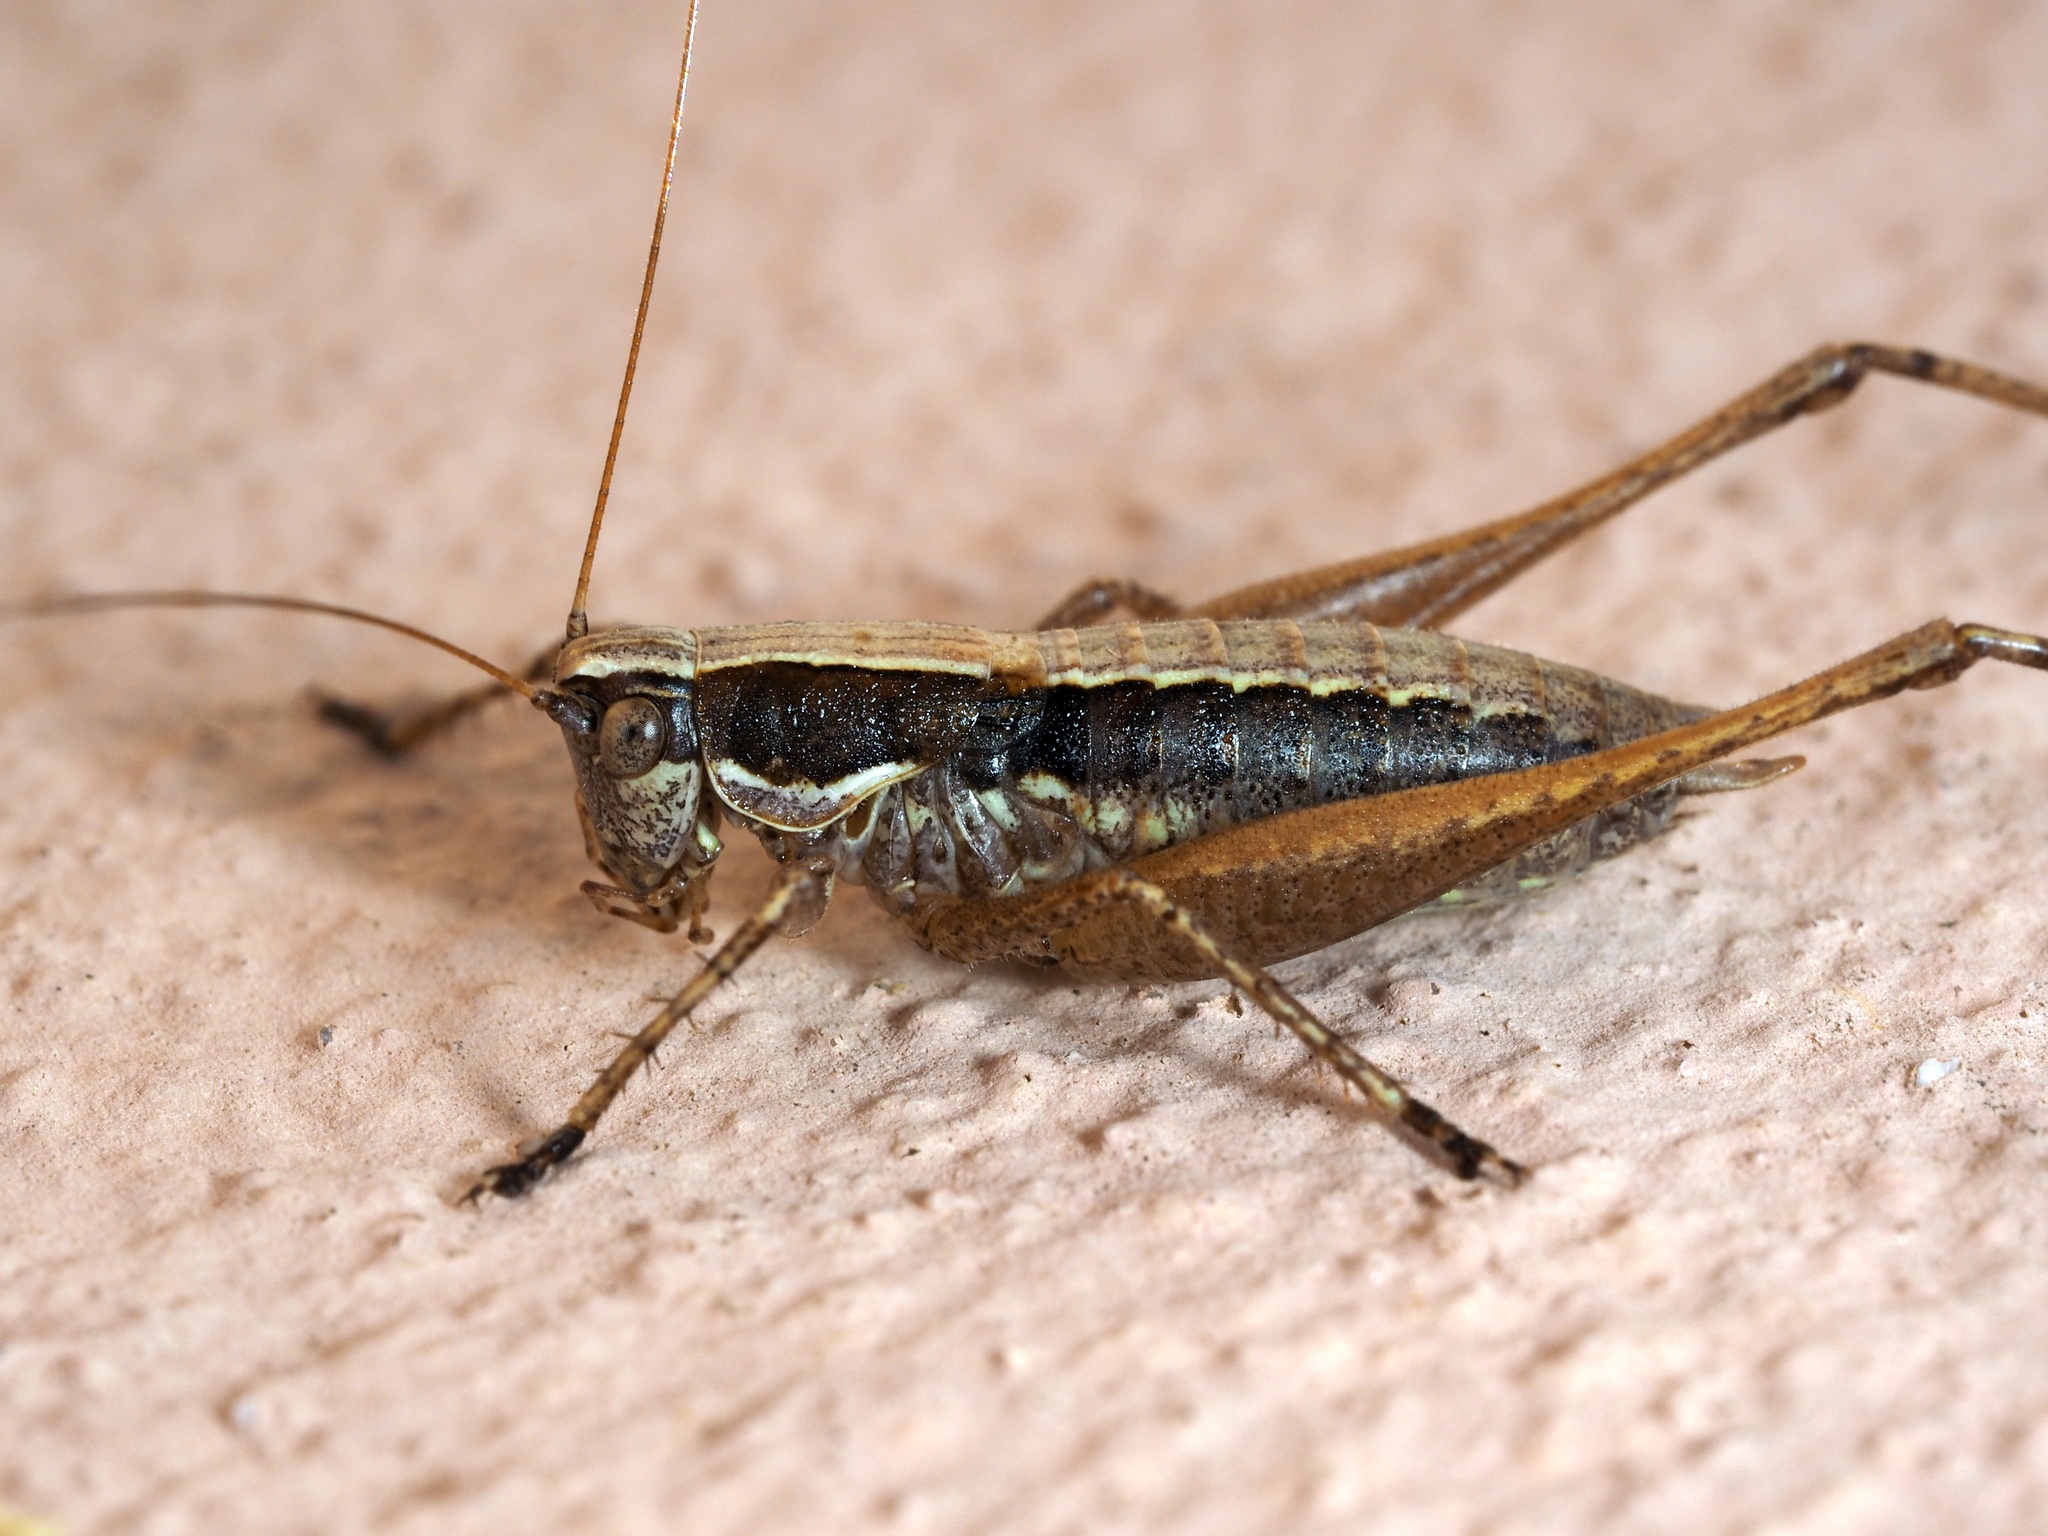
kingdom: Animalia
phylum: Arthropoda
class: Insecta
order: Orthoptera
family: Tettigoniidae
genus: Yersinella
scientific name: Yersinella raymondii
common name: Raymond's bush-cricket
